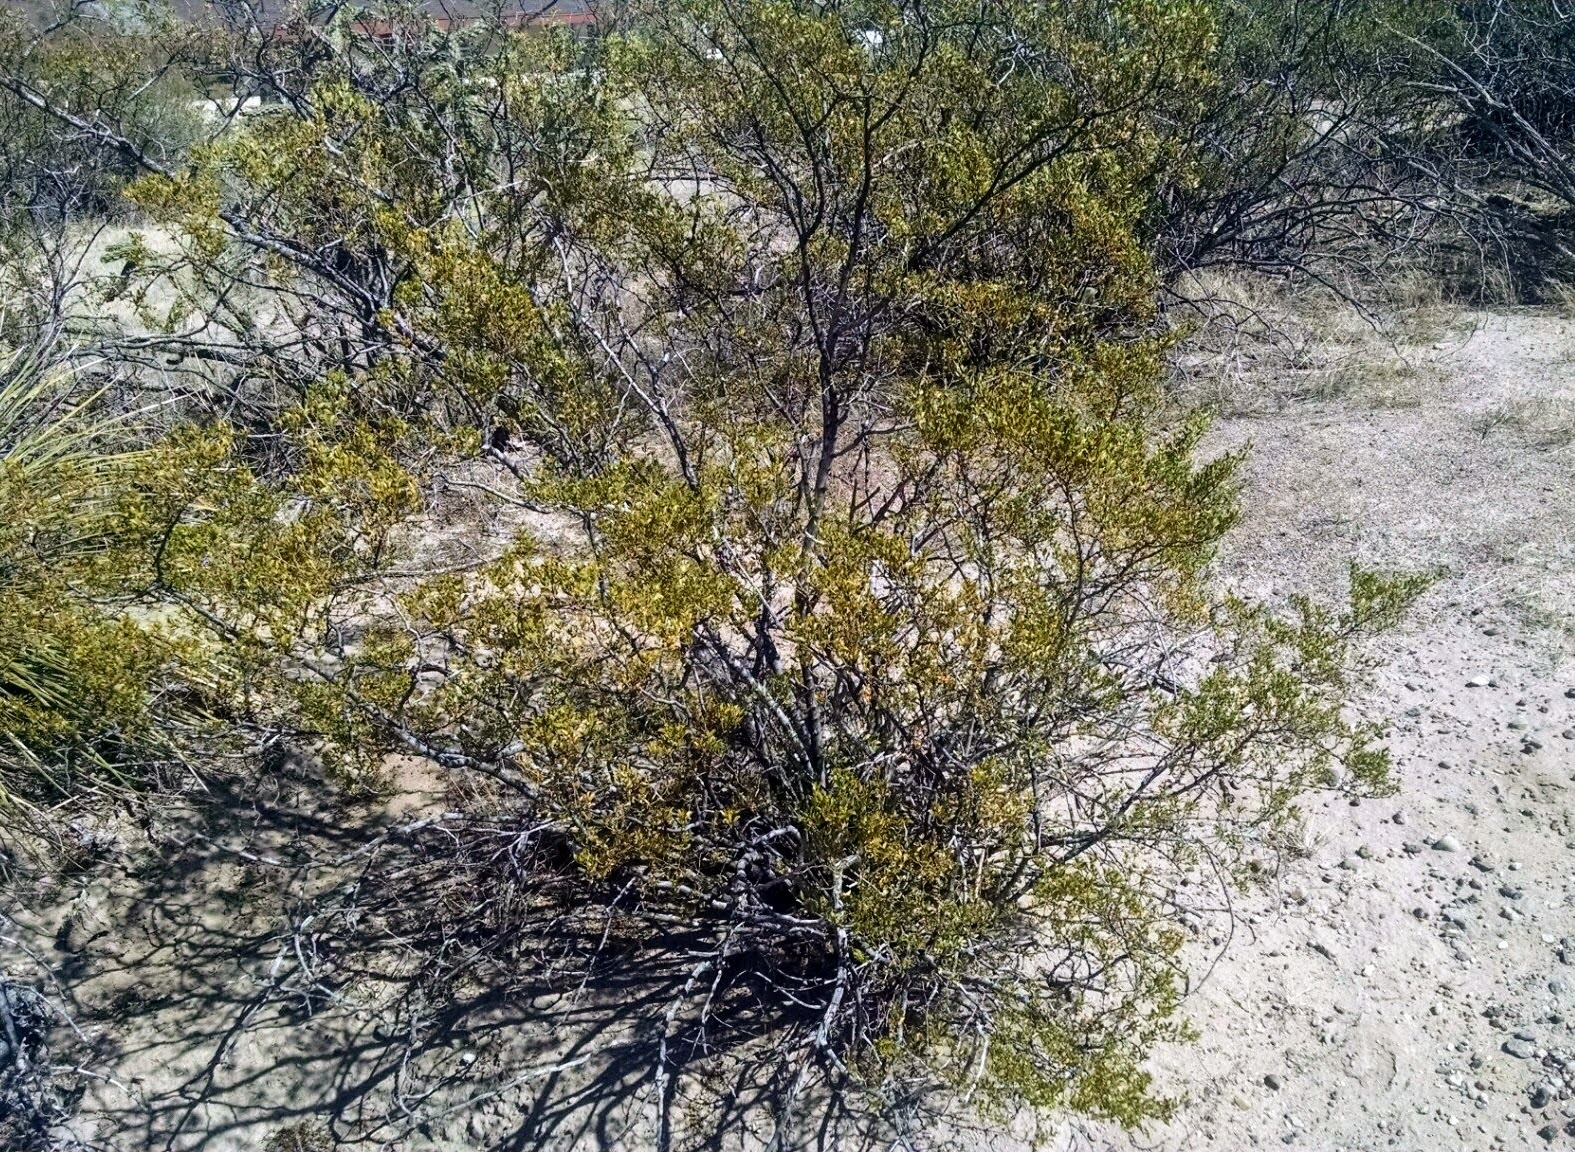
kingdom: Plantae
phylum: Tracheophyta
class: Magnoliopsida
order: Zygophyllales
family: Zygophyllaceae
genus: Larrea
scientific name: Larrea tridentata
